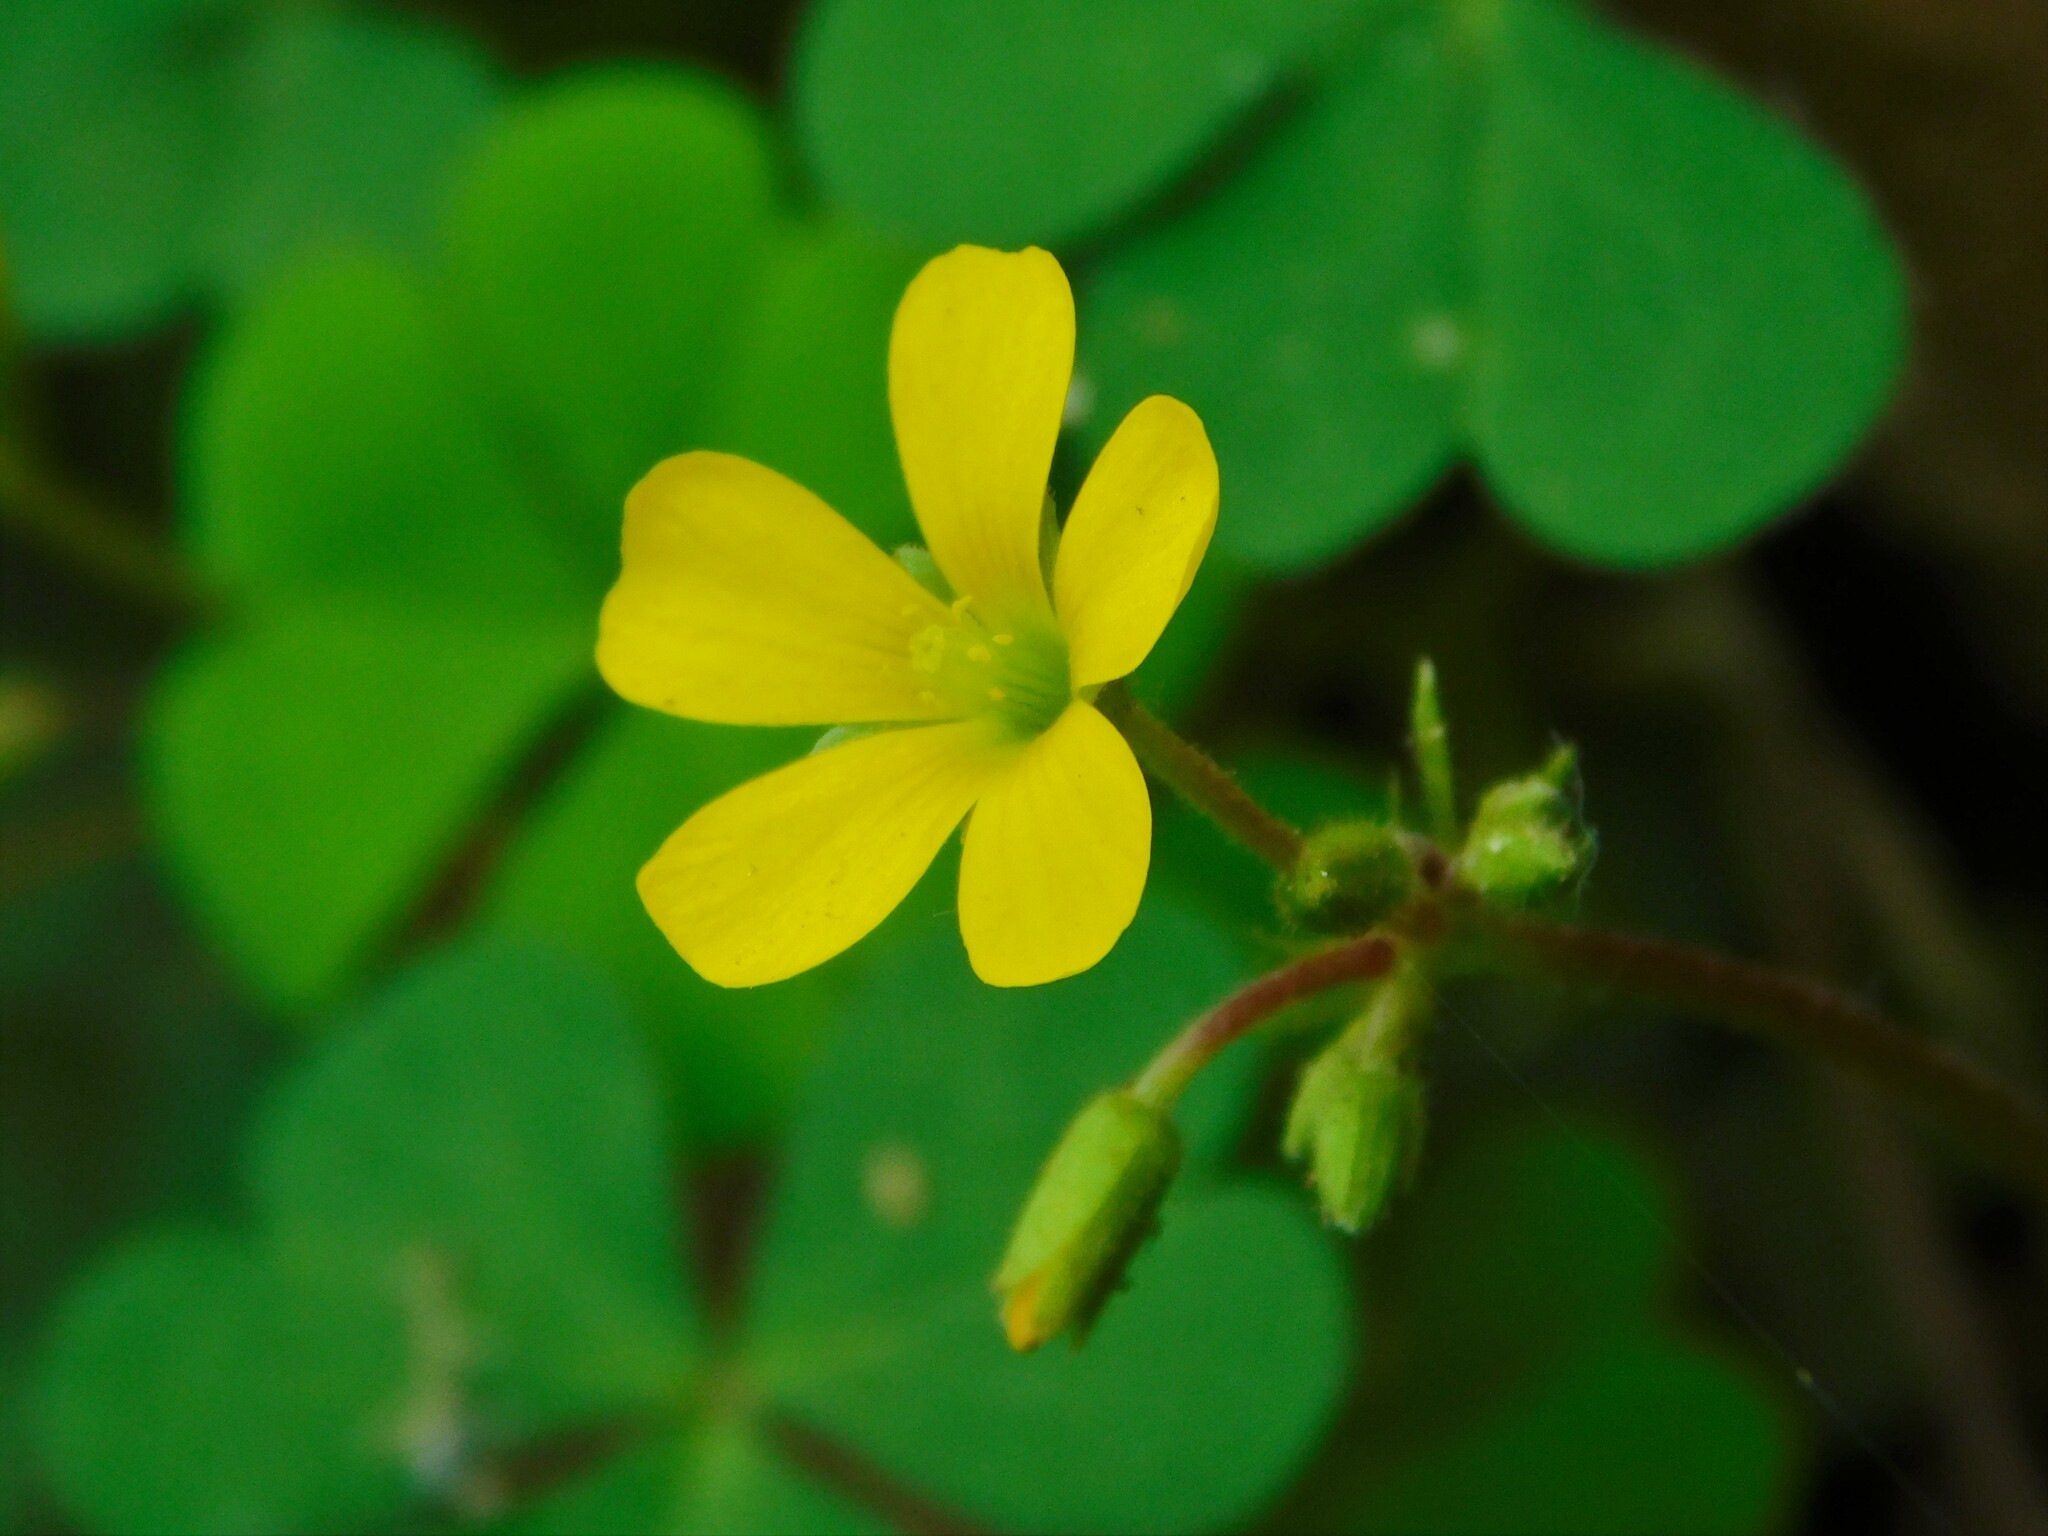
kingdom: Plantae
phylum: Tracheophyta
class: Magnoliopsida
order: Oxalidales
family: Oxalidaceae
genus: Oxalis
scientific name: Oxalis corniculata
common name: Procumbent yellow-sorrel
